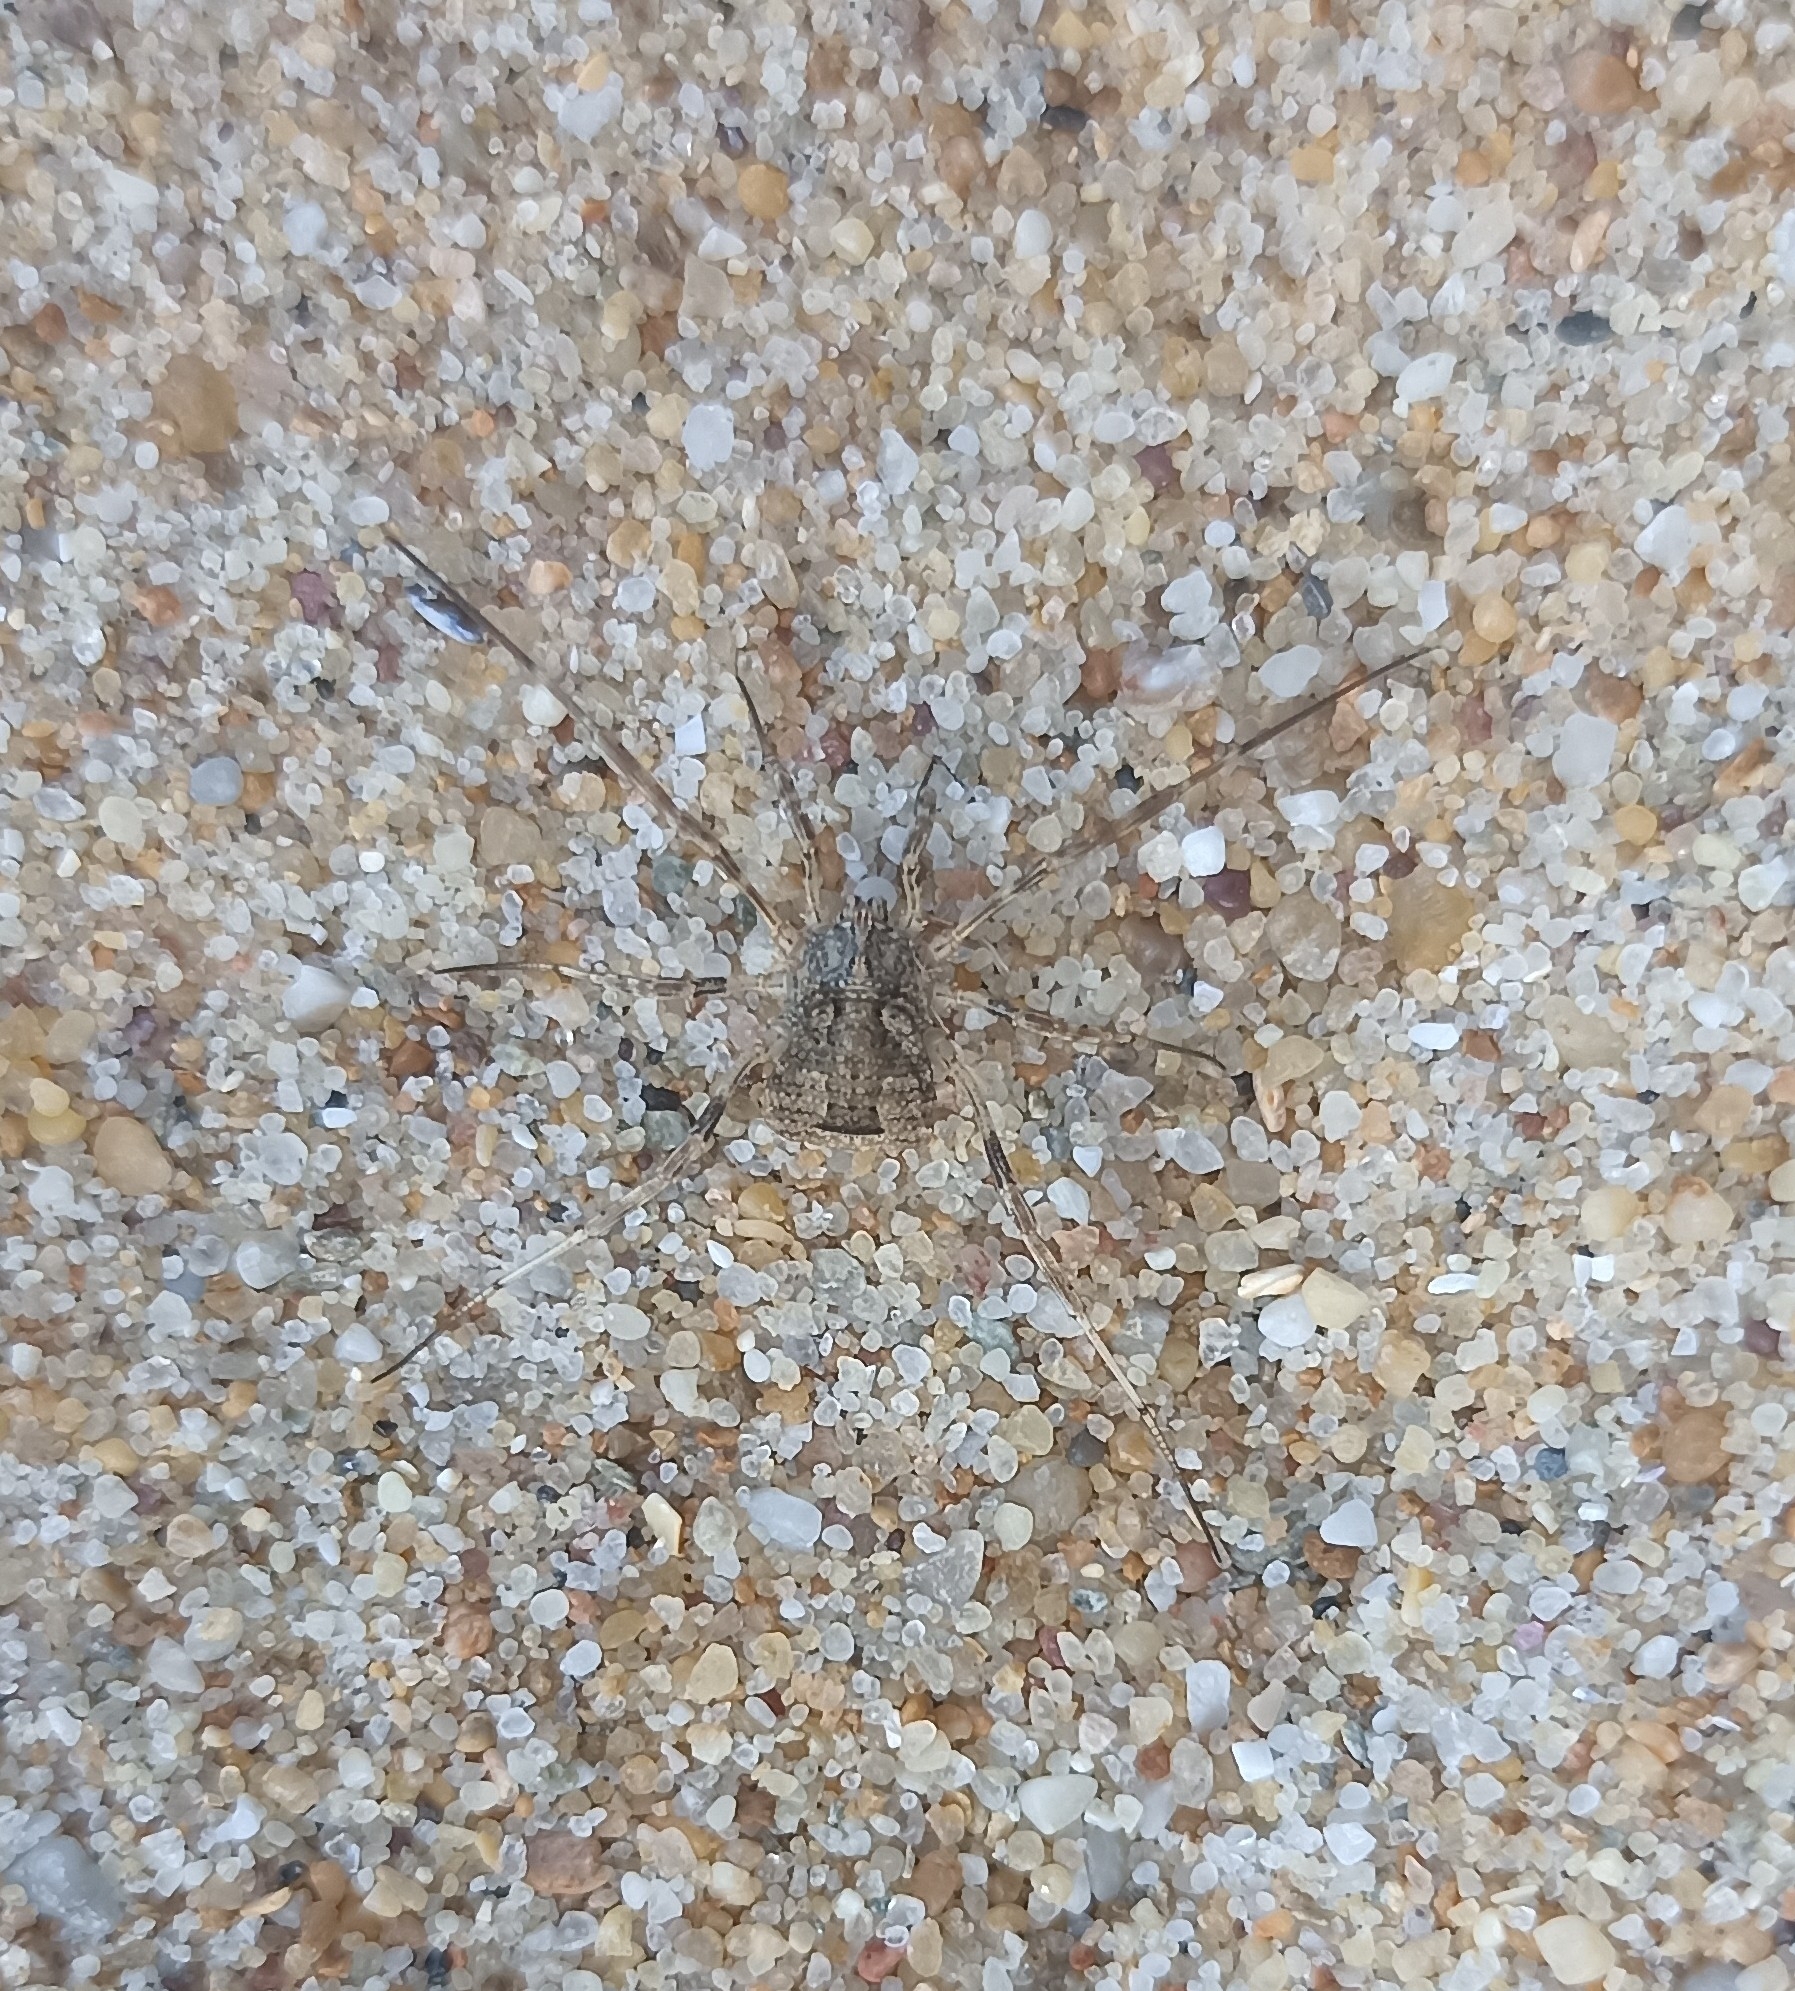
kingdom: Animalia
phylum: Arthropoda
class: Arachnida
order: Opiliones
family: Phalangiidae
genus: Odiellus
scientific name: Odiellus spinosus
